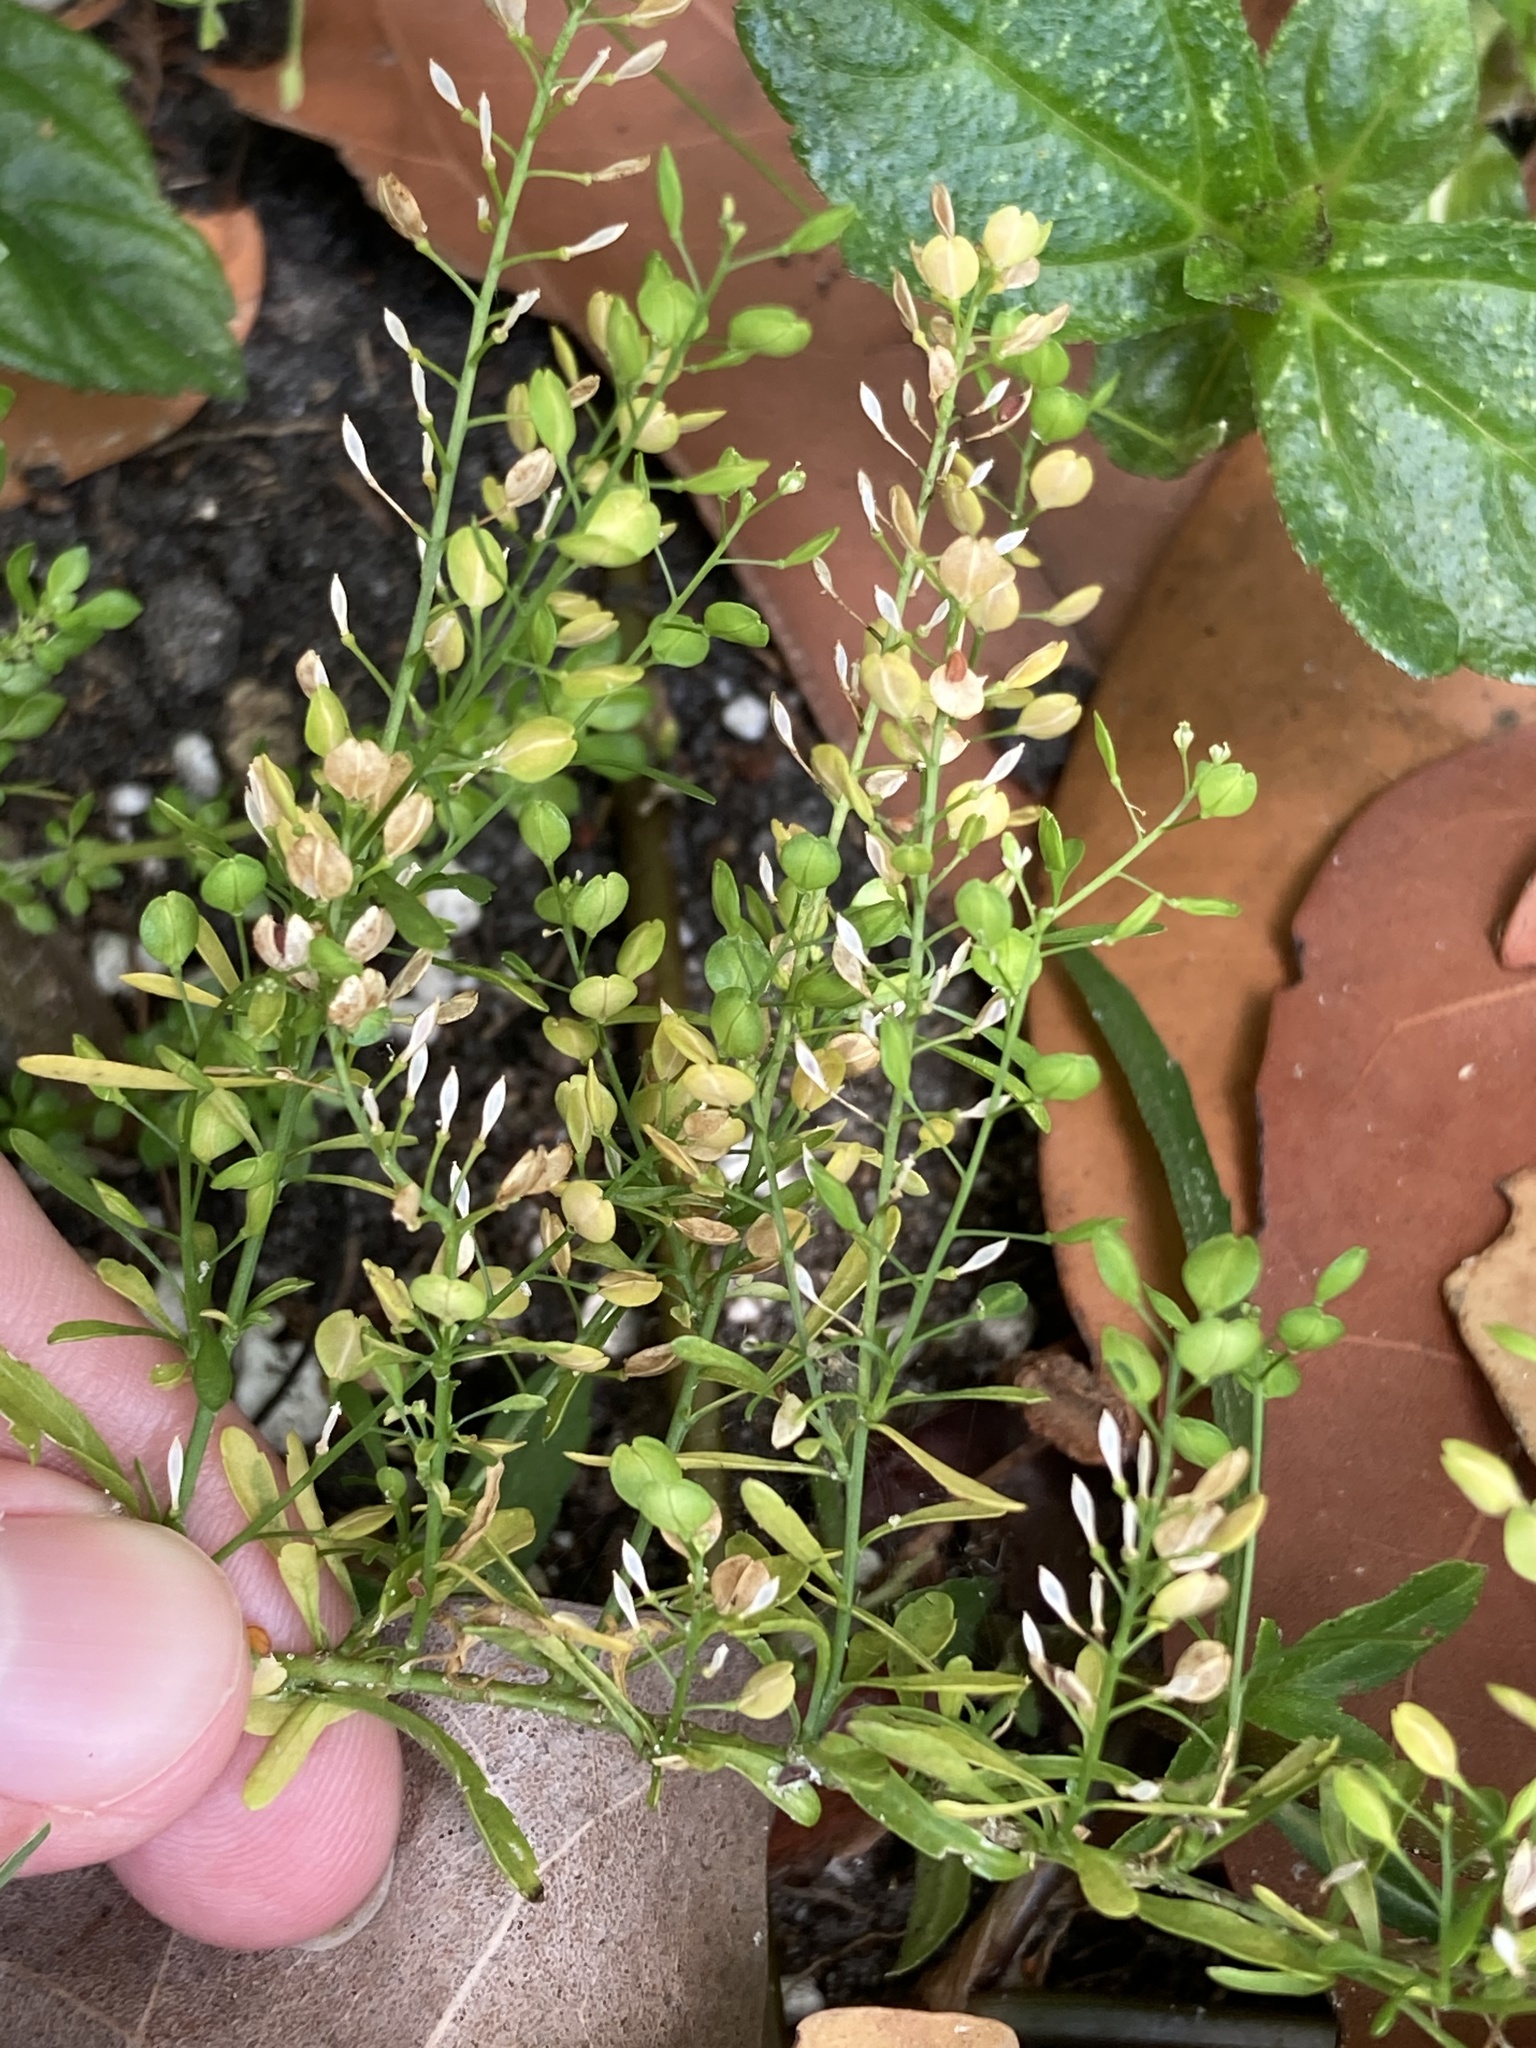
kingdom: Plantae
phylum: Tracheophyta
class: Magnoliopsida
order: Brassicales
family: Brassicaceae
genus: Lepidium
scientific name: Lepidium virginicum
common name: Least pepperwort
